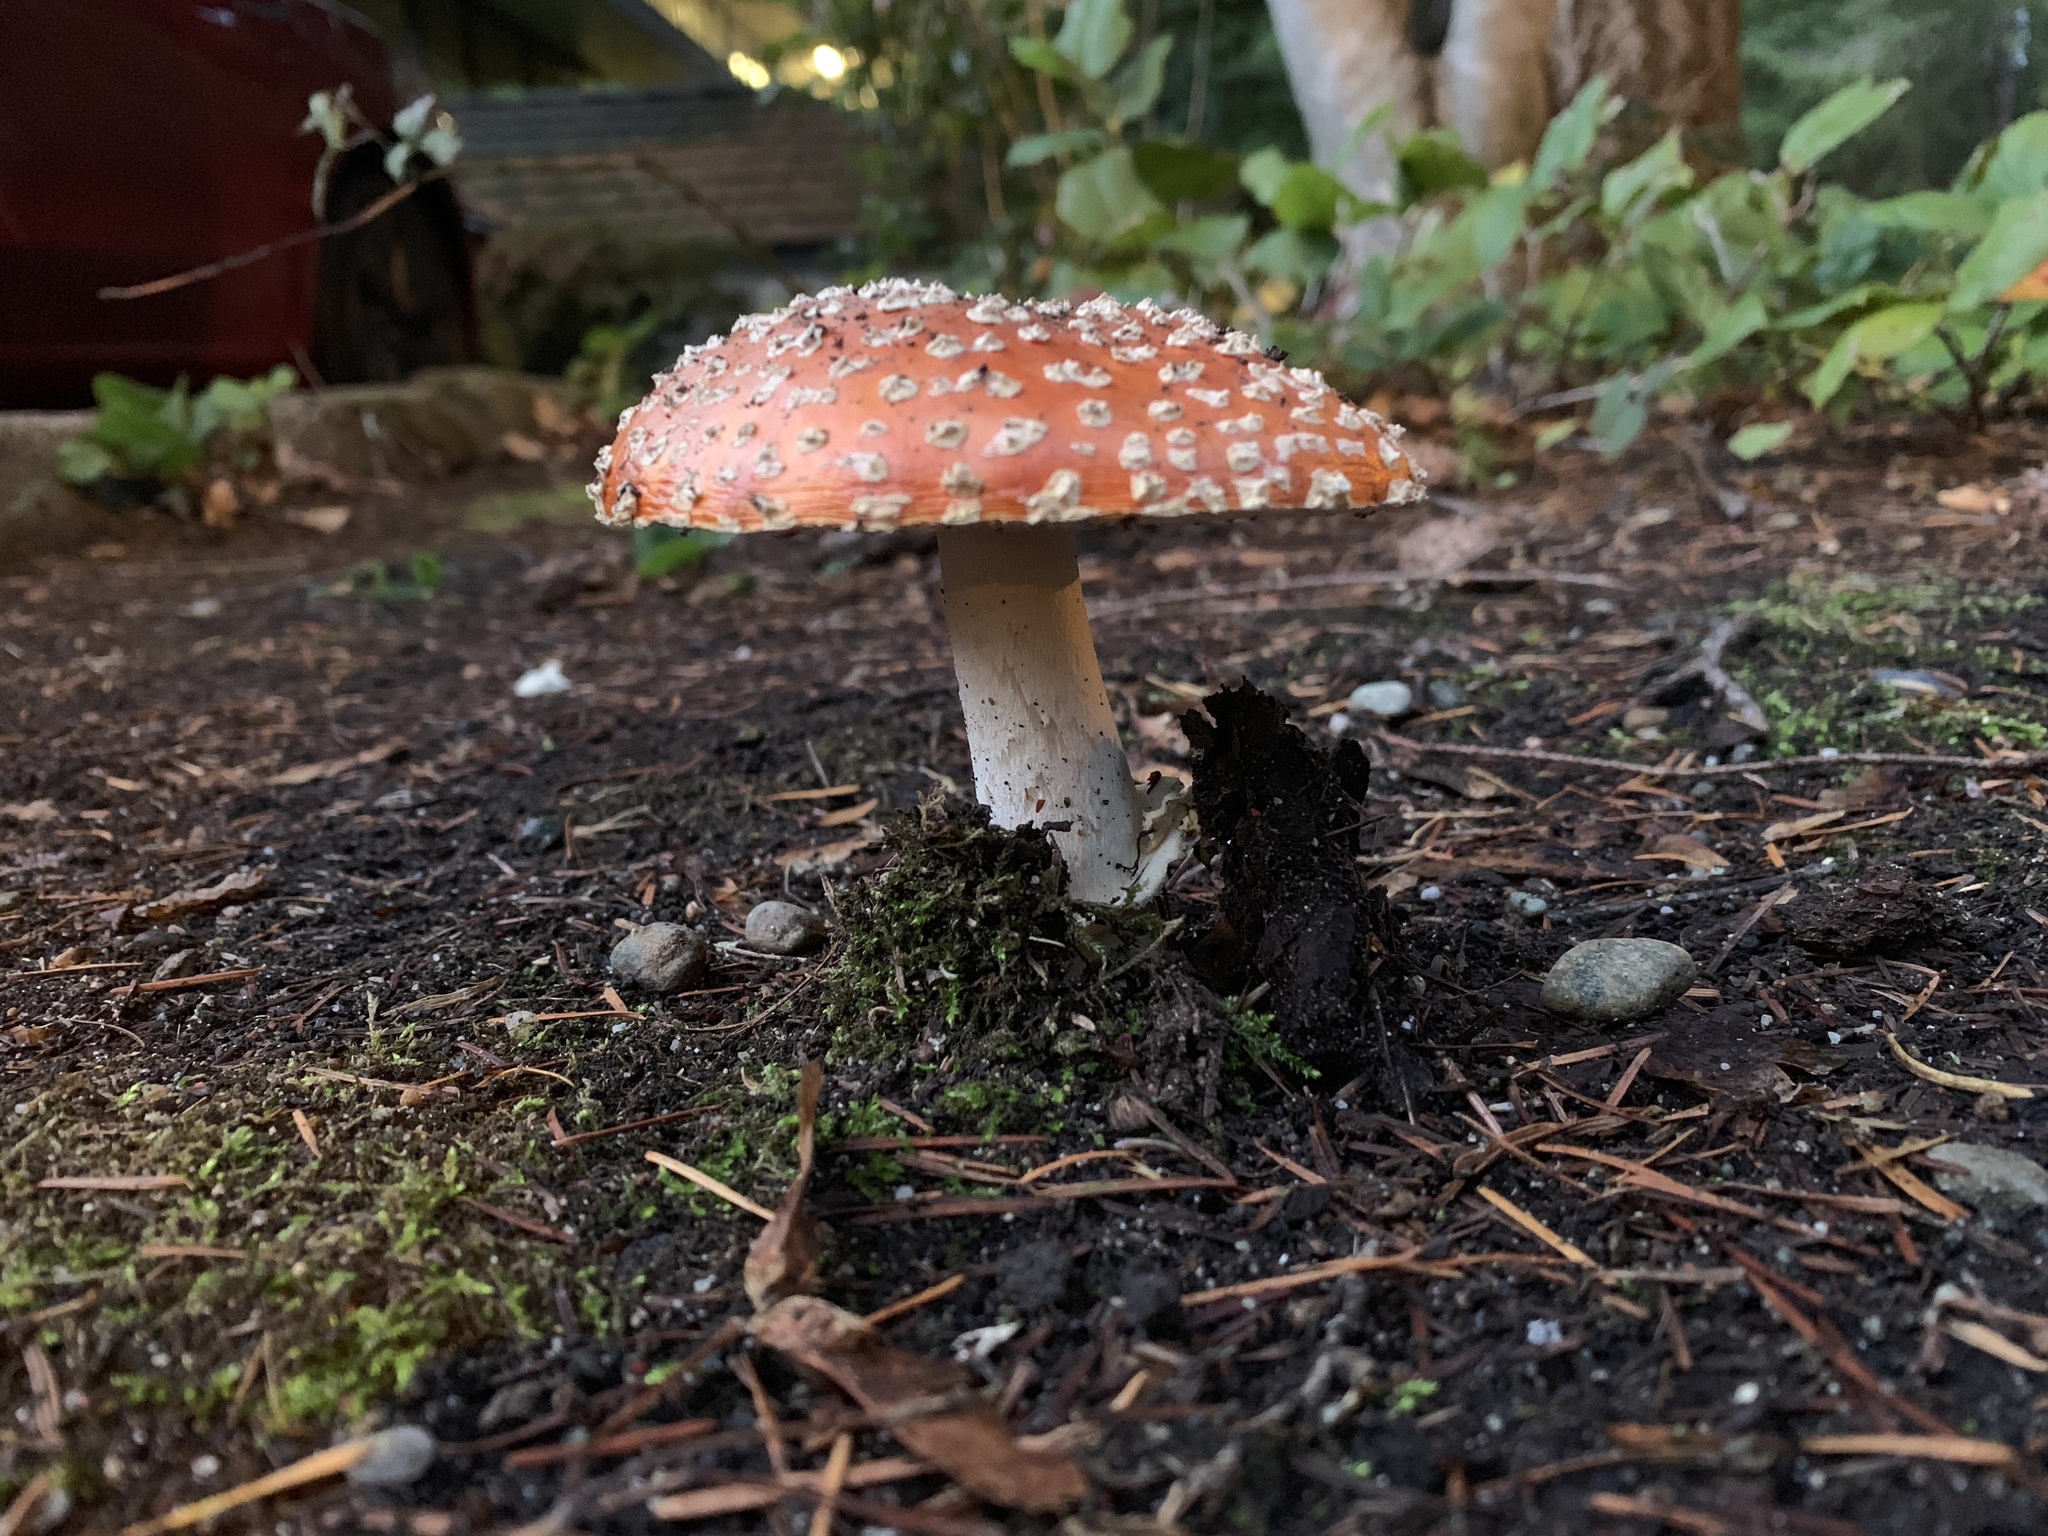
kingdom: Fungi
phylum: Basidiomycota
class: Agaricomycetes
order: Agaricales
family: Amanitaceae
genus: Amanita
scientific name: Amanita muscaria
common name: Fly agaric
